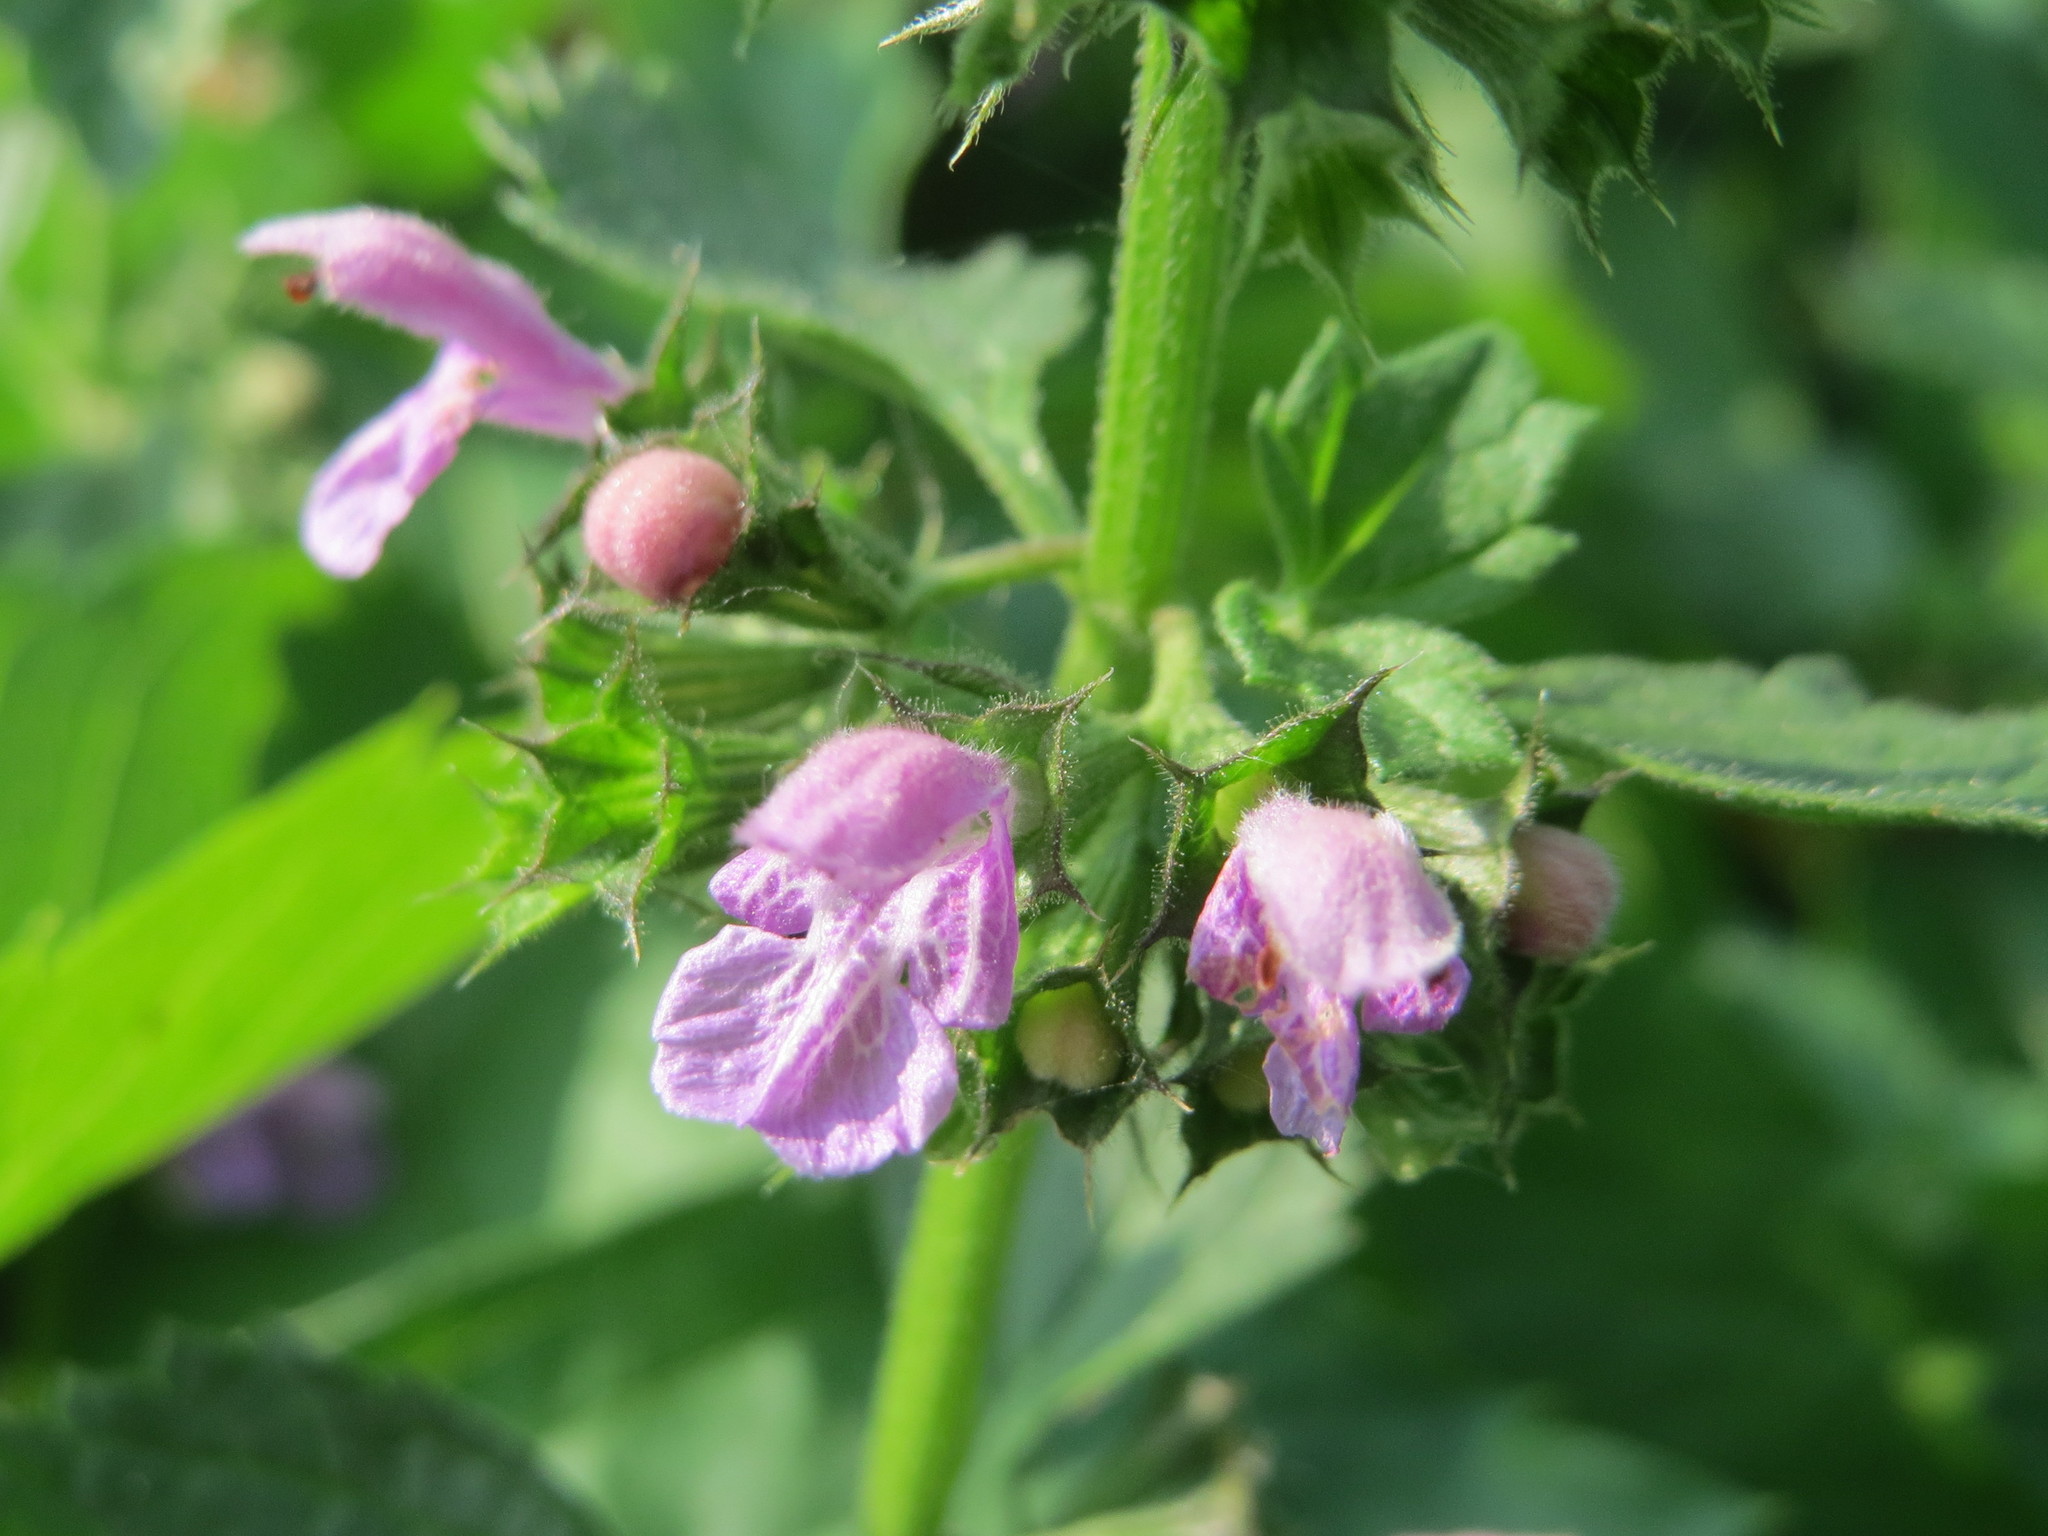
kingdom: Plantae
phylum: Tracheophyta
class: Magnoliopsida
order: Lamiales
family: Lamiaceae
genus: Ballota
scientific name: Ballota nigra
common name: Black horehound
